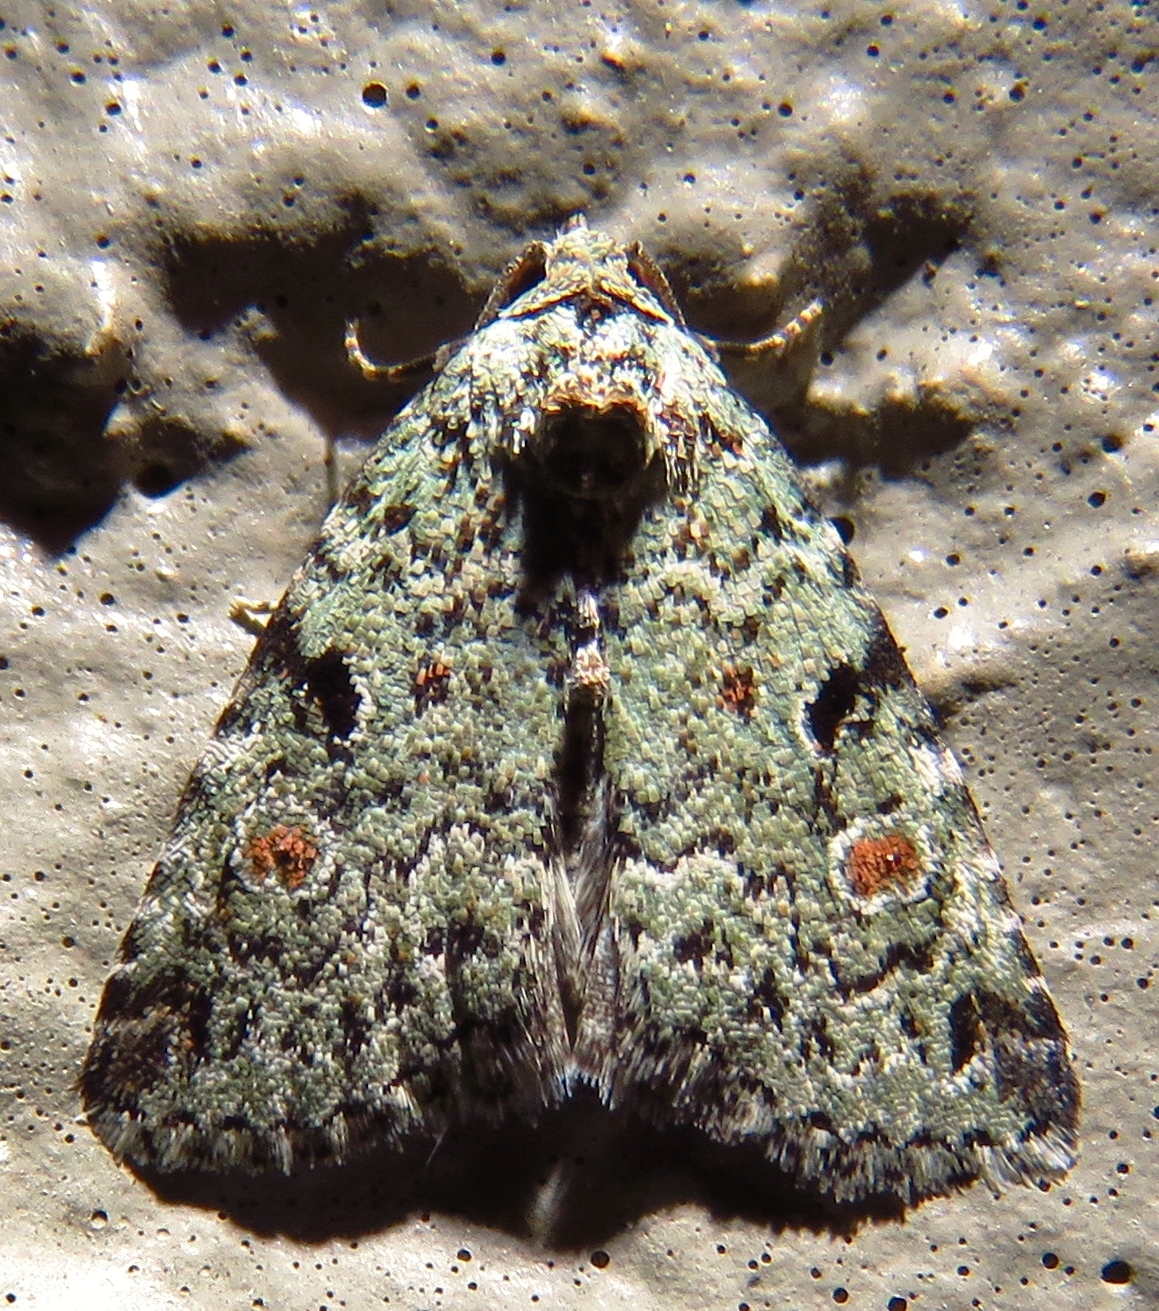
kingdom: Animalia
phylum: Arthropoda
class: Insecta
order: Lepidoptera
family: Noctuidae
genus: Maliattha
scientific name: Maliattha concinnimacula
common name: Red-spotted glyph
